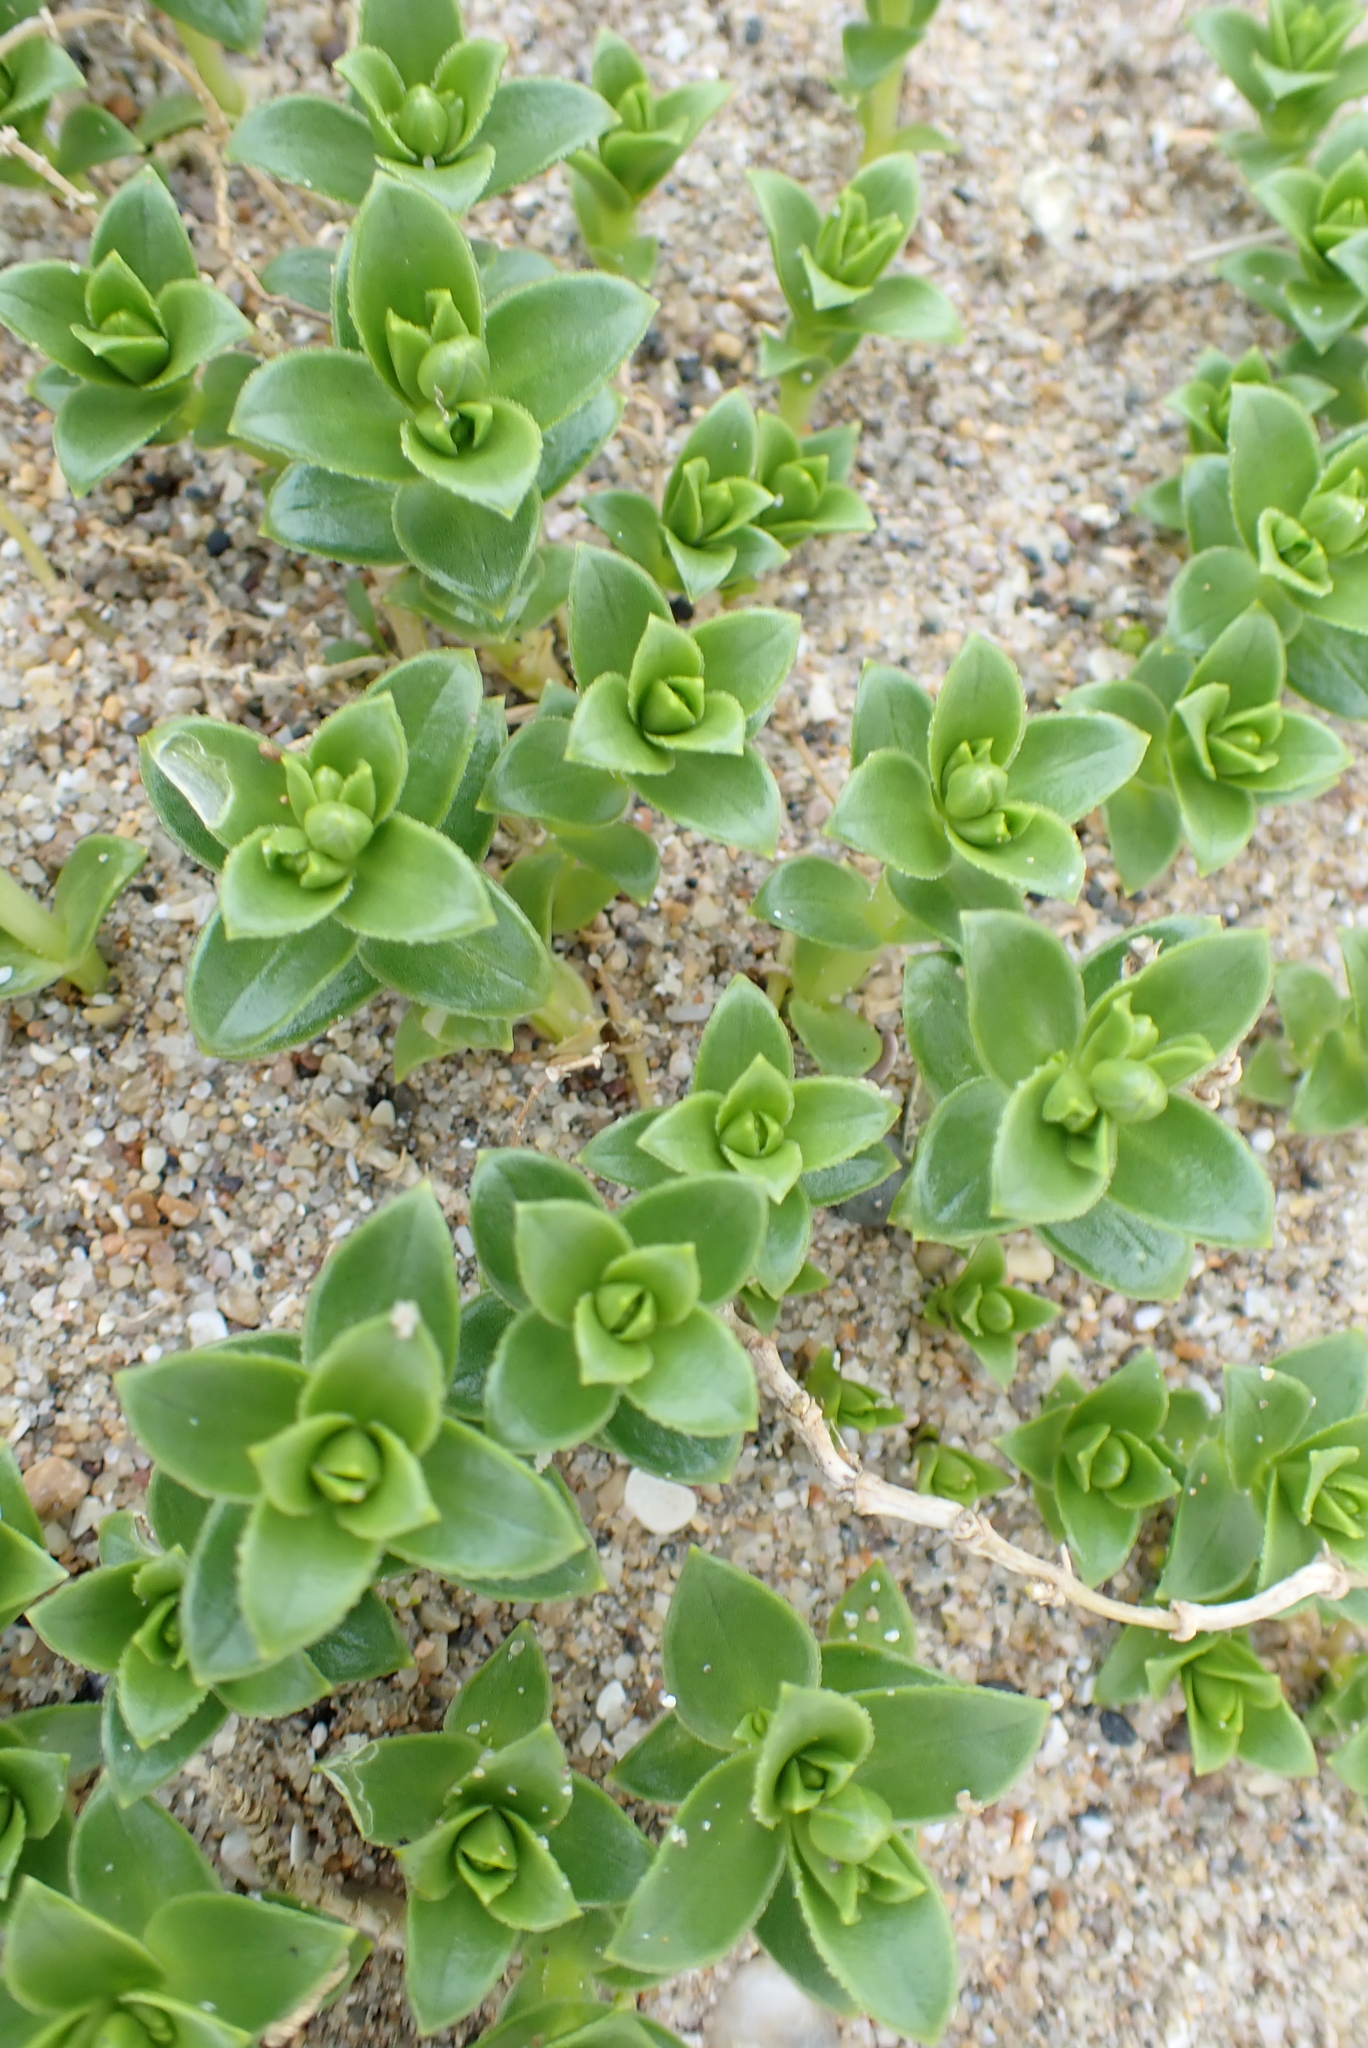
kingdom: Plantae
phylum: Tracheophyta
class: Magnoliopsida
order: Caryophyllales
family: Caryophyllaceae
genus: Honckenya
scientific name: Honckenya peploides
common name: Sea sandwort
